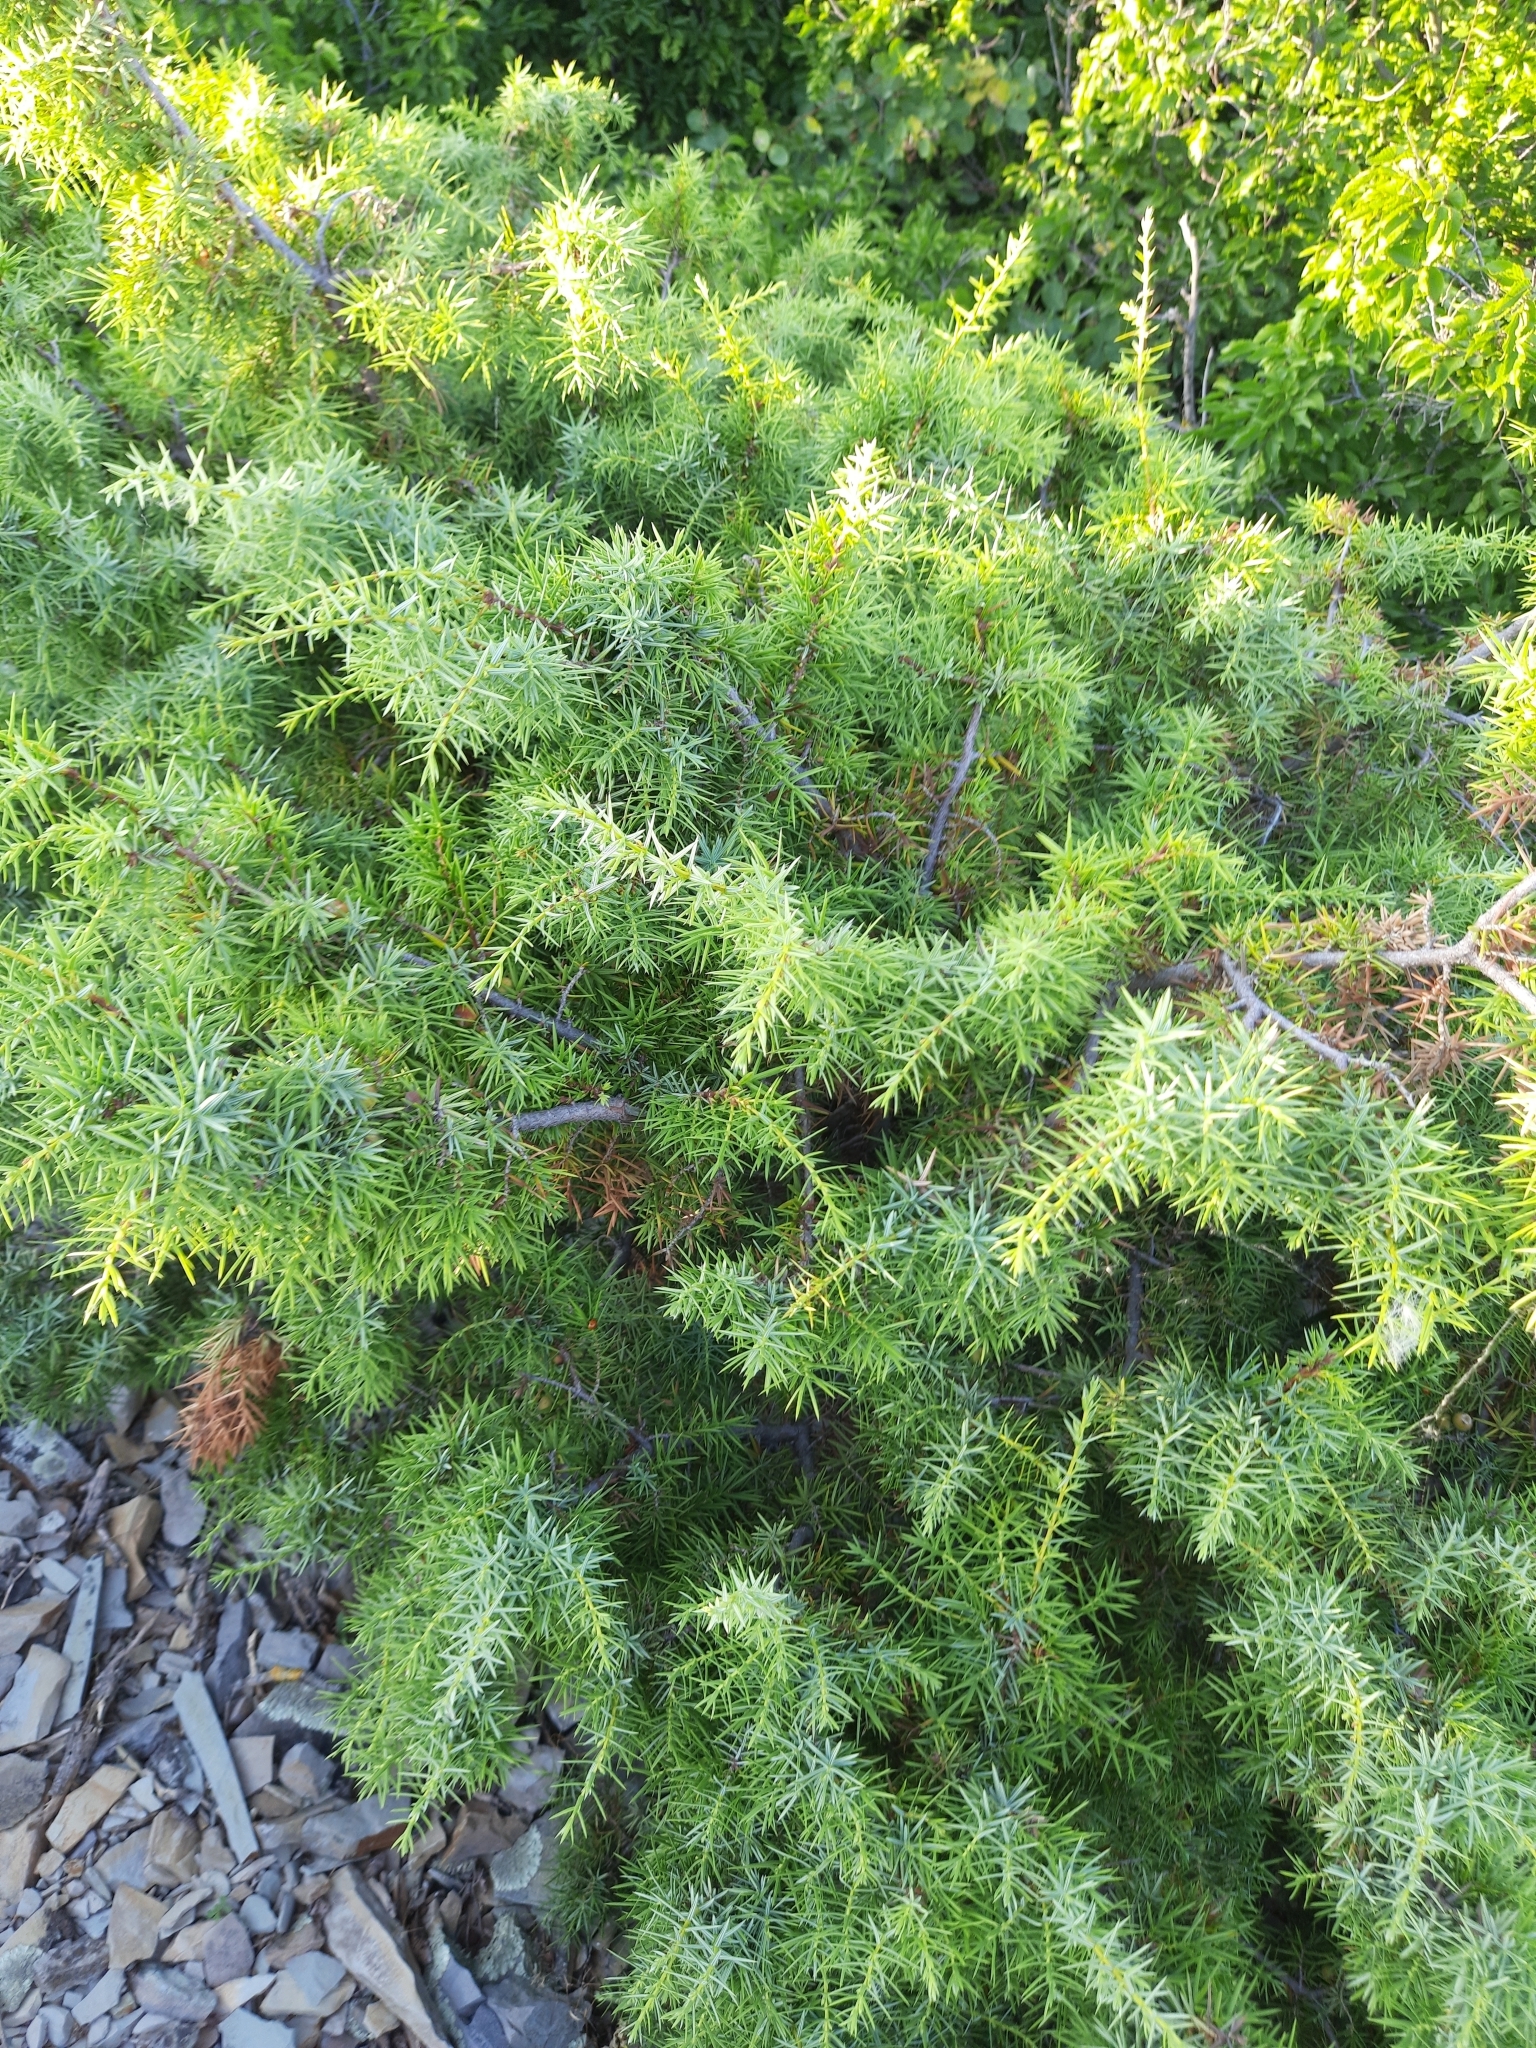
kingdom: Plantae
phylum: Tracheophyta
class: Pinopsida
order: Pinales
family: Cupressaceae
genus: Juniperus
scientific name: Juniperus oxycedrus
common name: Prickly juniper
